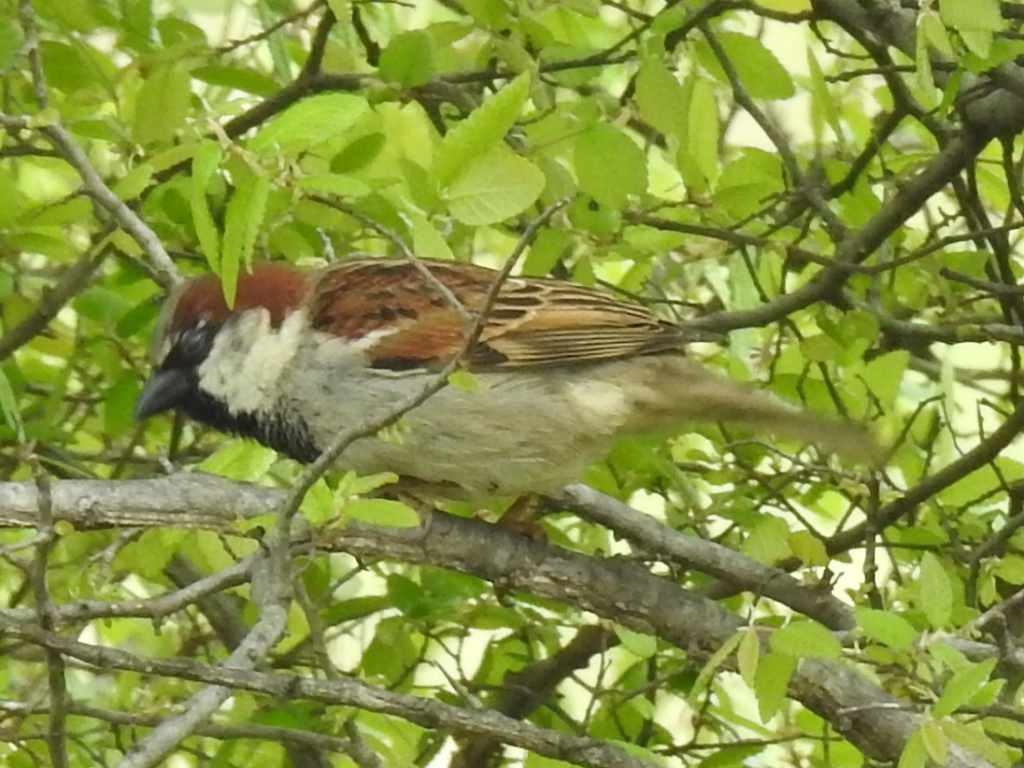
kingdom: Animalia
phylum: Chordata
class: Aves
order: Passeriformes
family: Passeridae
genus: Passer
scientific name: Passer domesticus
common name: House sparrow
